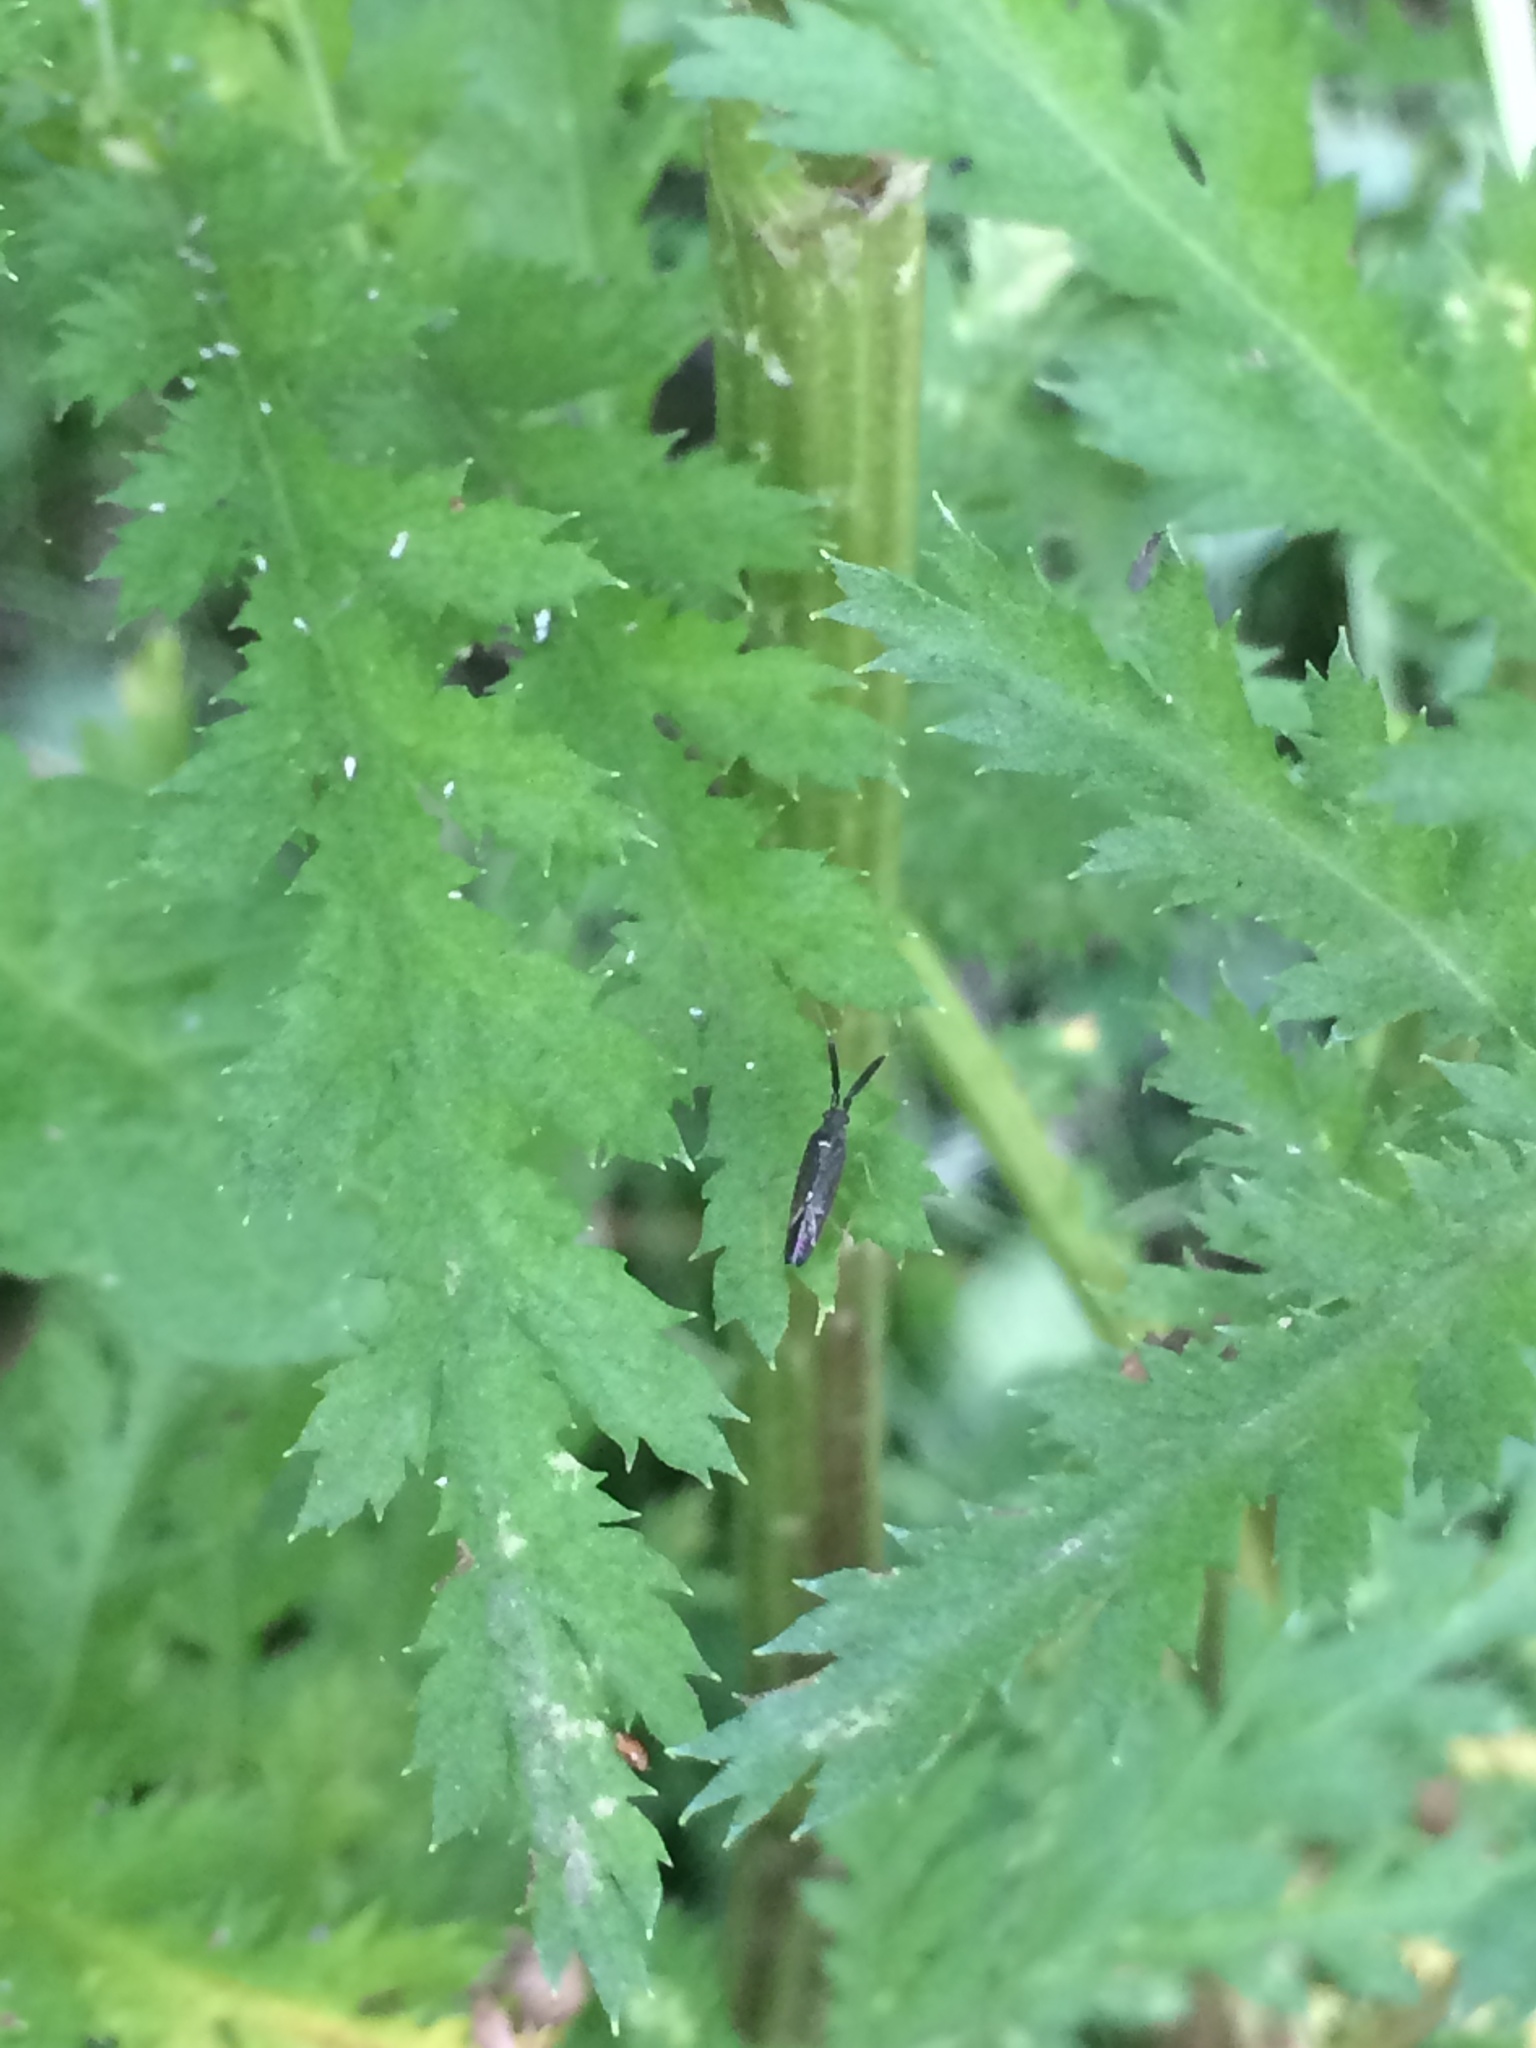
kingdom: Animalia
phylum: Arthropoda
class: Insecta
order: Hemiptera
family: Miridae
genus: Heterotoma
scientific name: Heterotoma planicornis
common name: Plant bug
